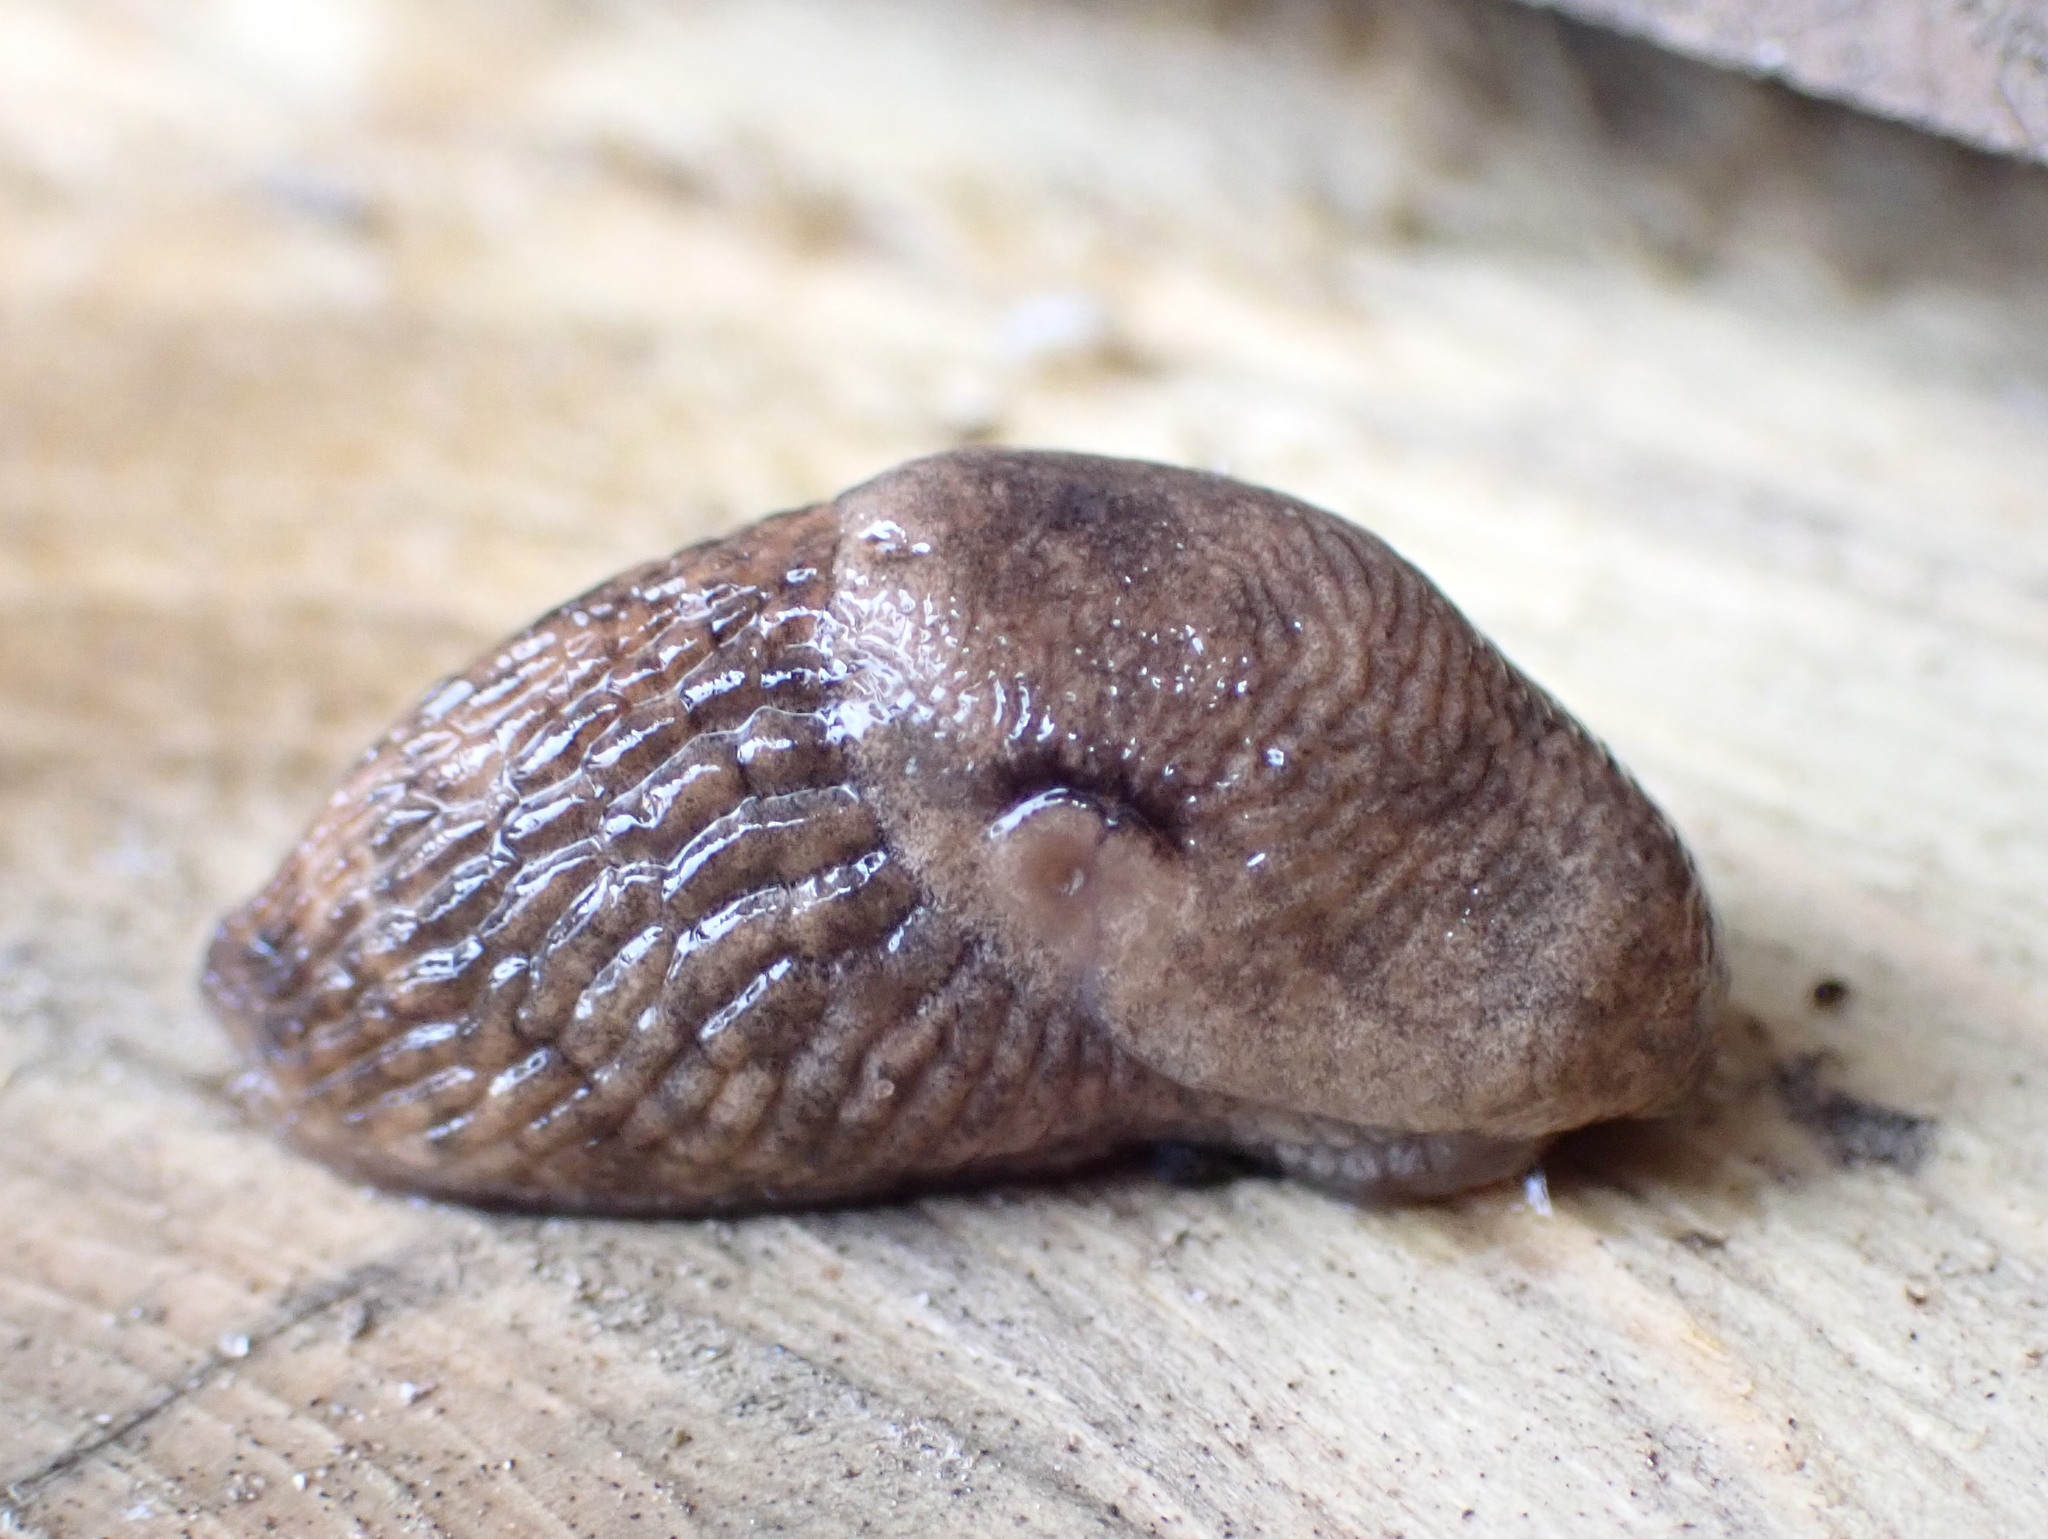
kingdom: Animalia
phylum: Mollusca
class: Gastropoda
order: Stylommatophora
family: Agriolimacidae
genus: Deroceras
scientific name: Deroceras reticulatum
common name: Gray field slug
